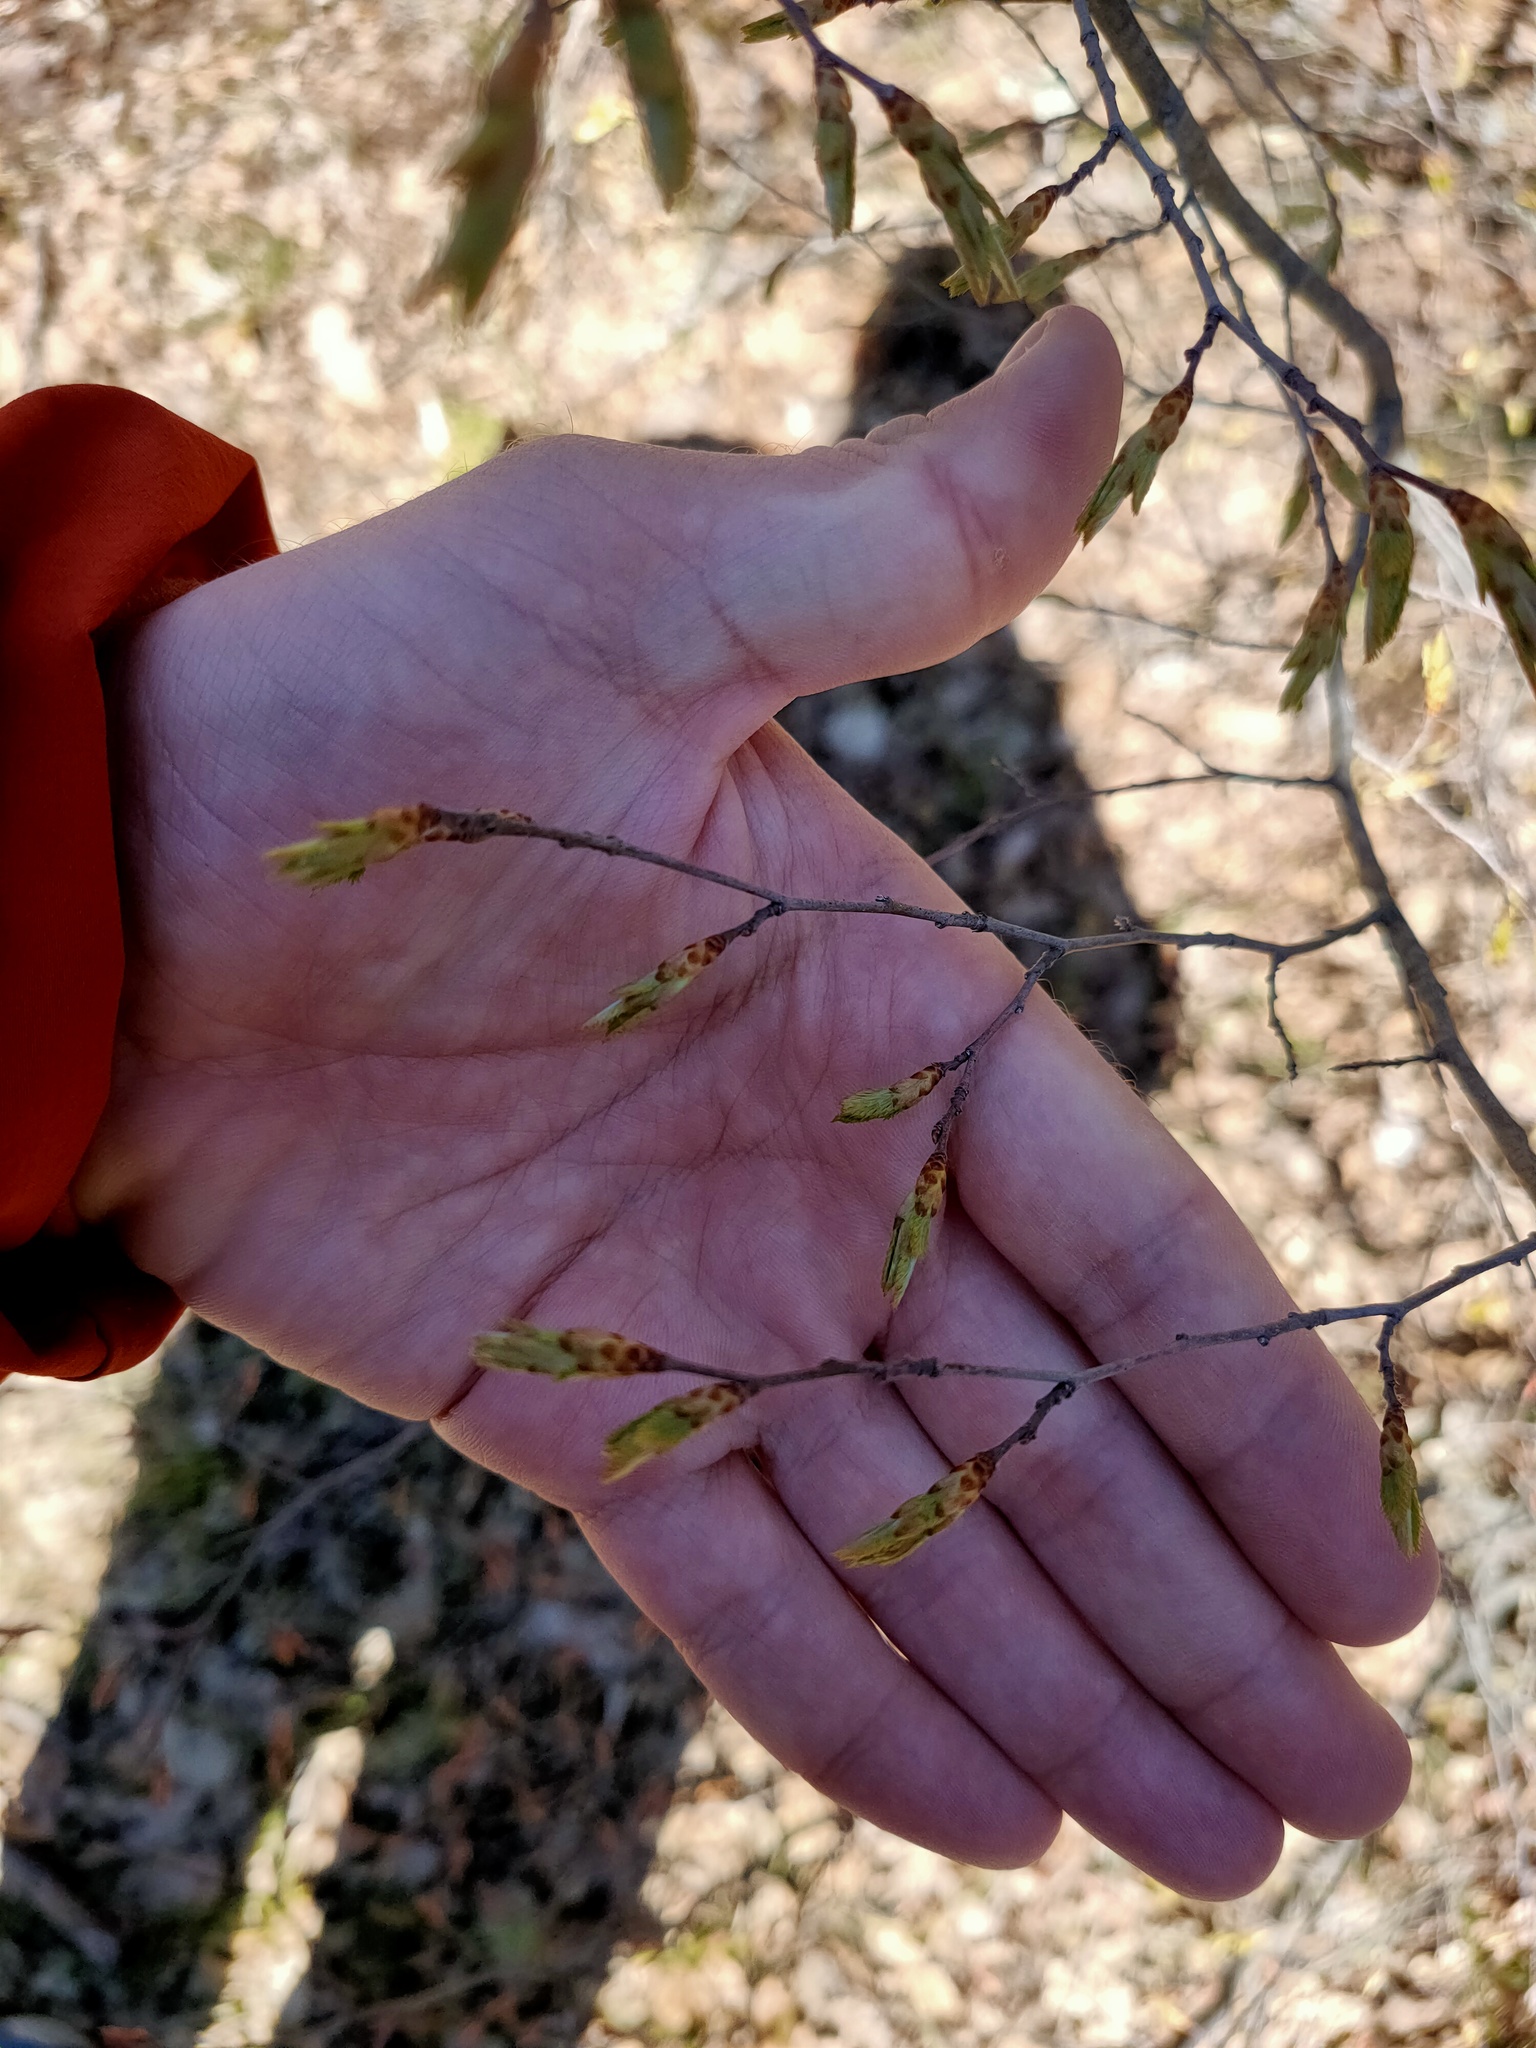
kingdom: Plantae
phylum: Tracheophyta
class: Magnoliopsida
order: Fagales
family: Betulaceae
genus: Carpinus
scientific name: Carpinus orientalis
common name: Eastern hornbeam
